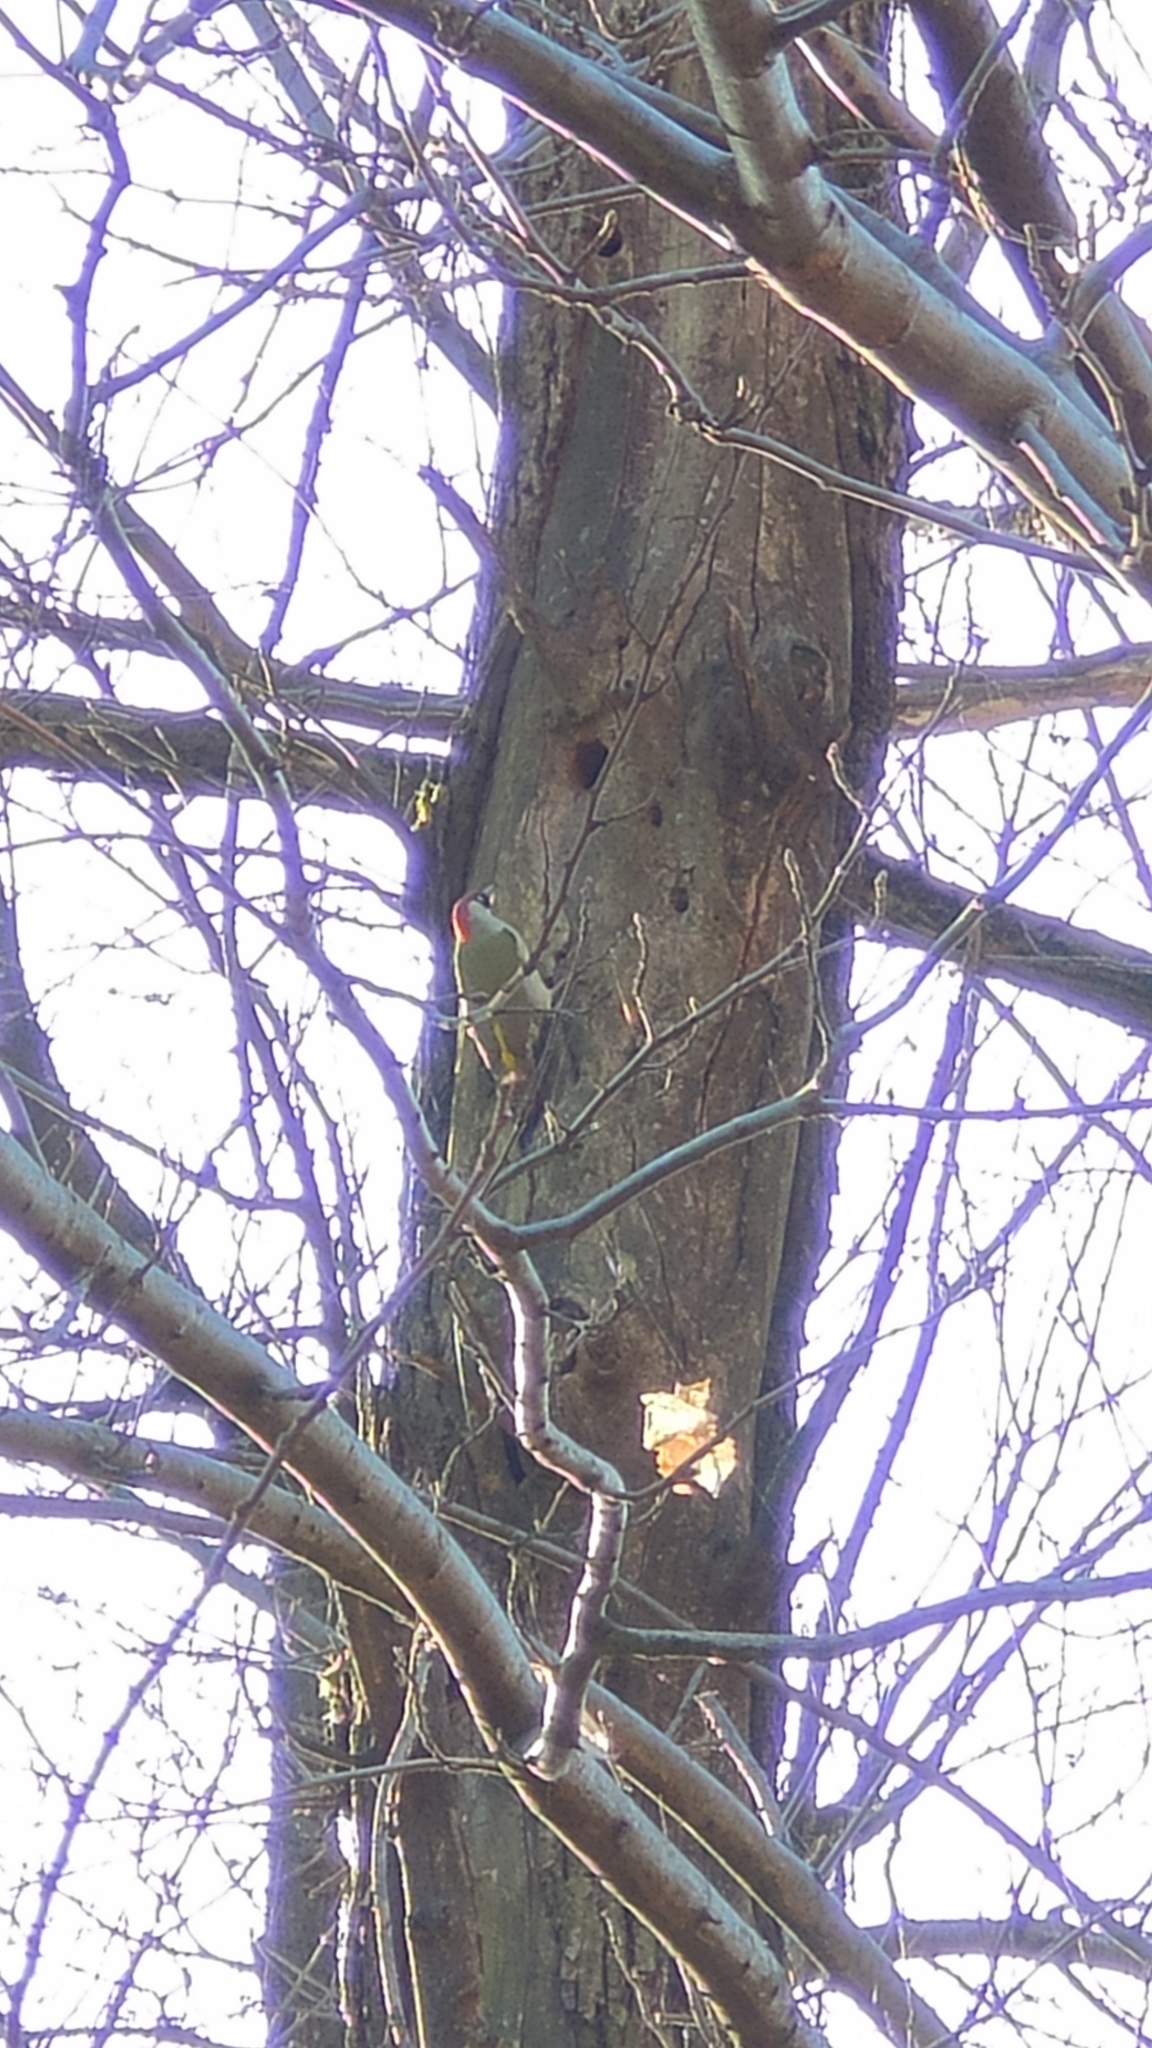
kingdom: Animalia
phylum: Chordata
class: Aves
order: Piciformes
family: Picidae
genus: Picus
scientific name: Picus viridis
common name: European green woodpecker
